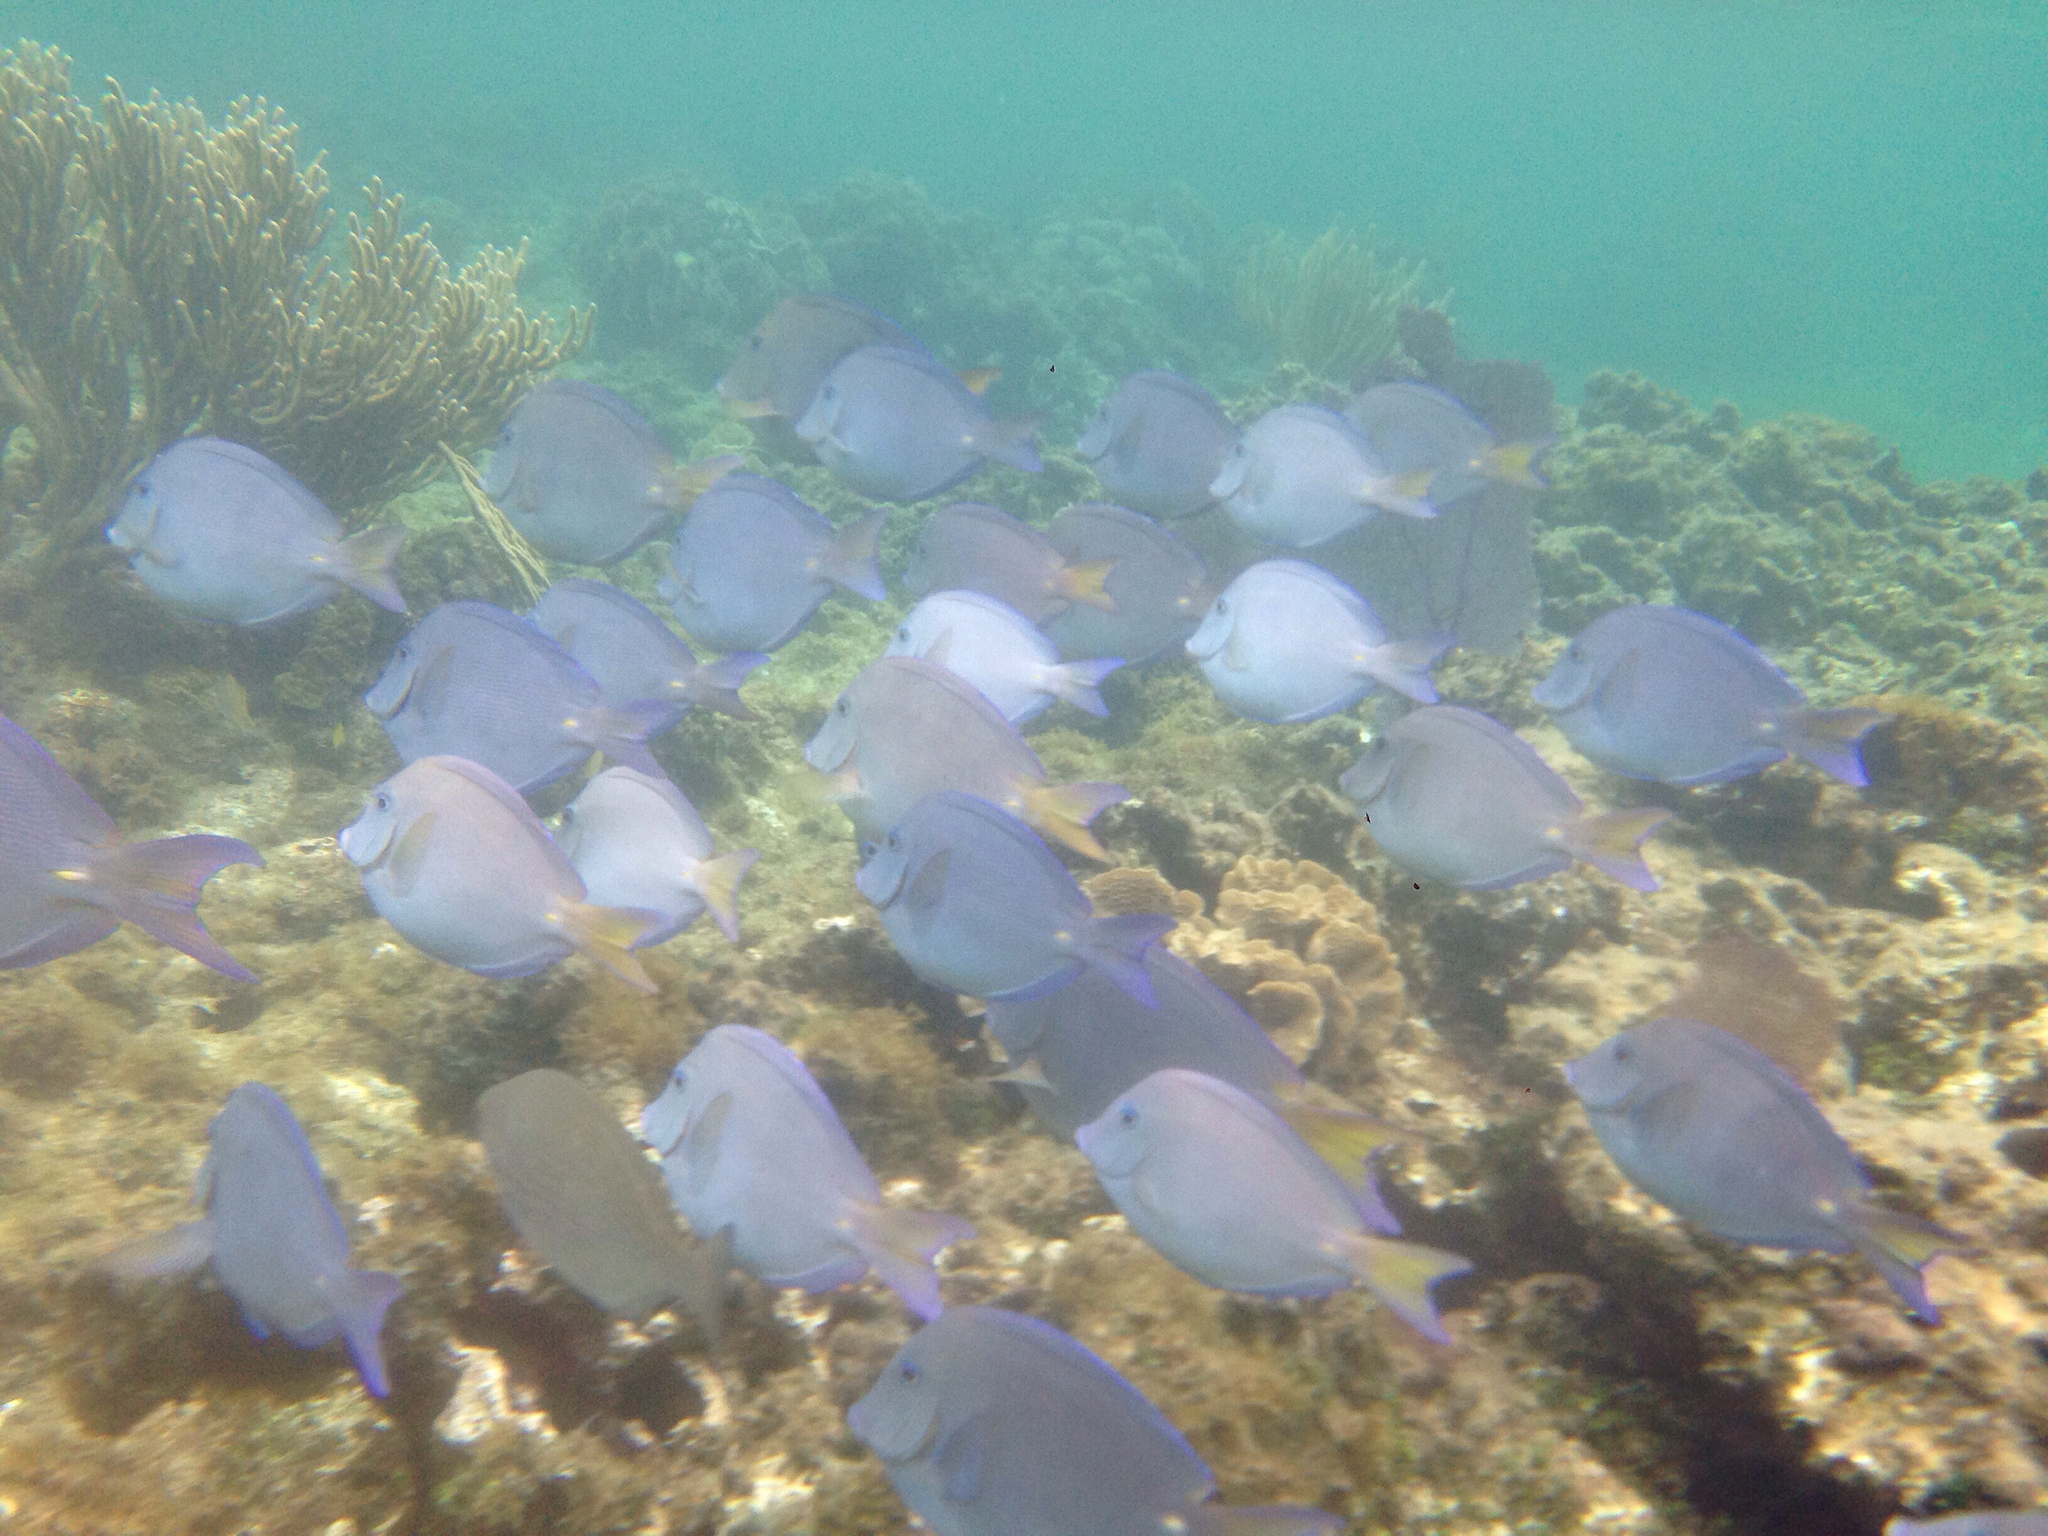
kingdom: Animalia
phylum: Chordata
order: Perciformes
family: Acanthuridae
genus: Acanthurus
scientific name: Acanthurus coeruleus
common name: Blue tang
